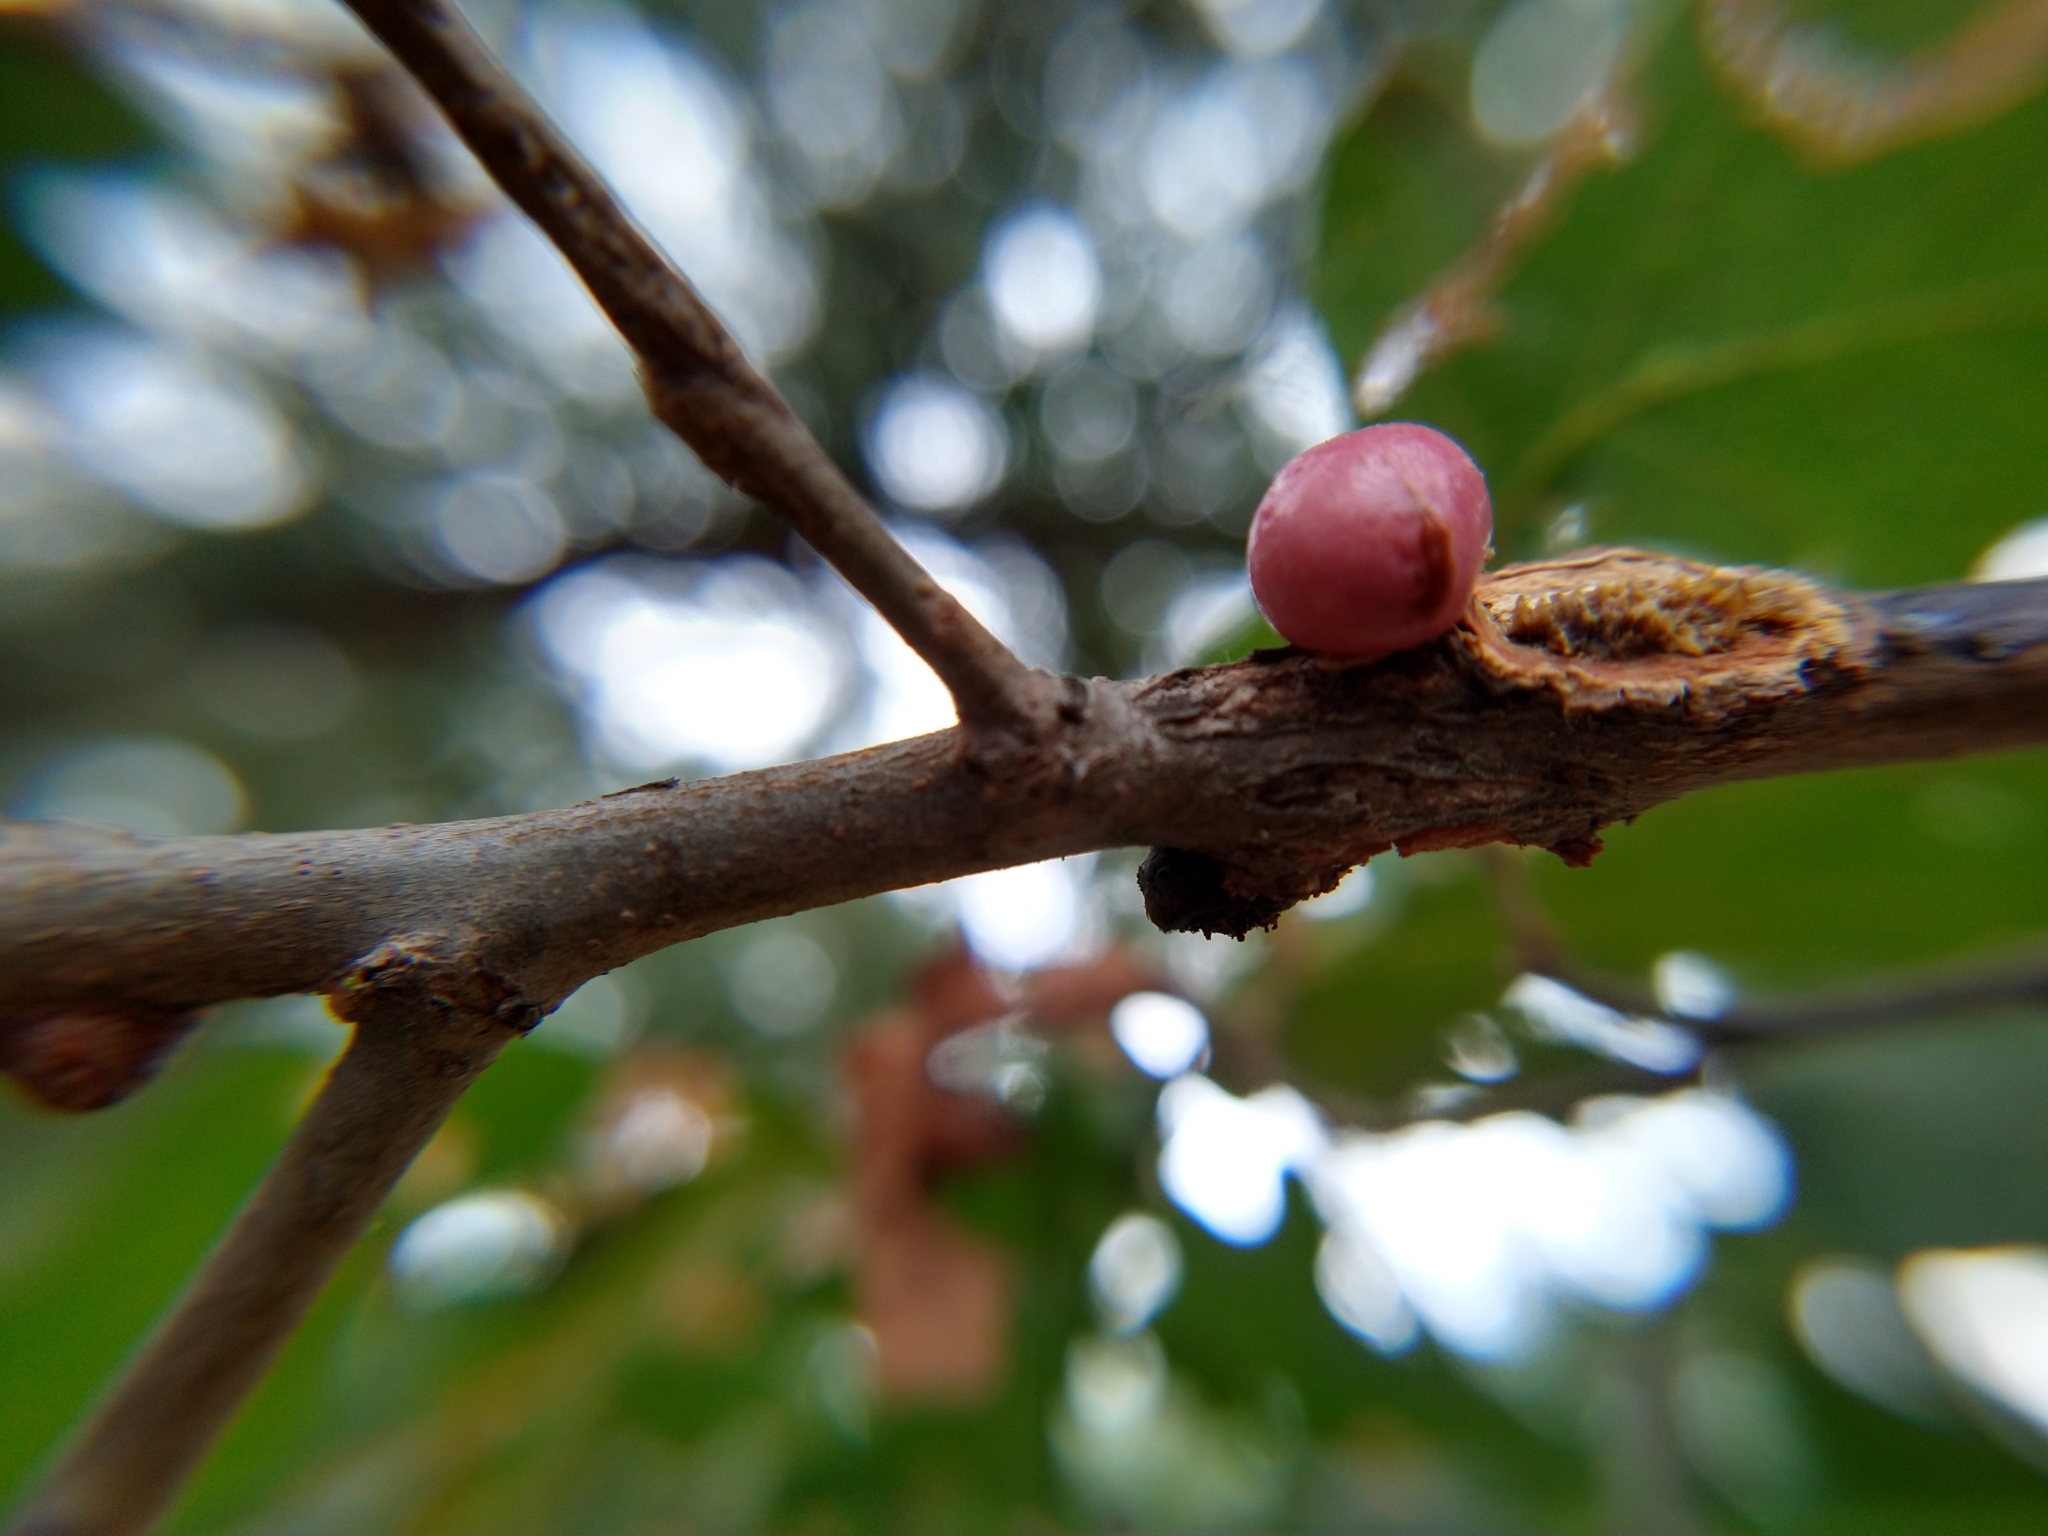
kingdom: Animalia
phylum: Arthropoda
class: Insecta
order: Hymenoptera
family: Cynipidae
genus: Andricus
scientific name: Andricus quercuscalifornicus
